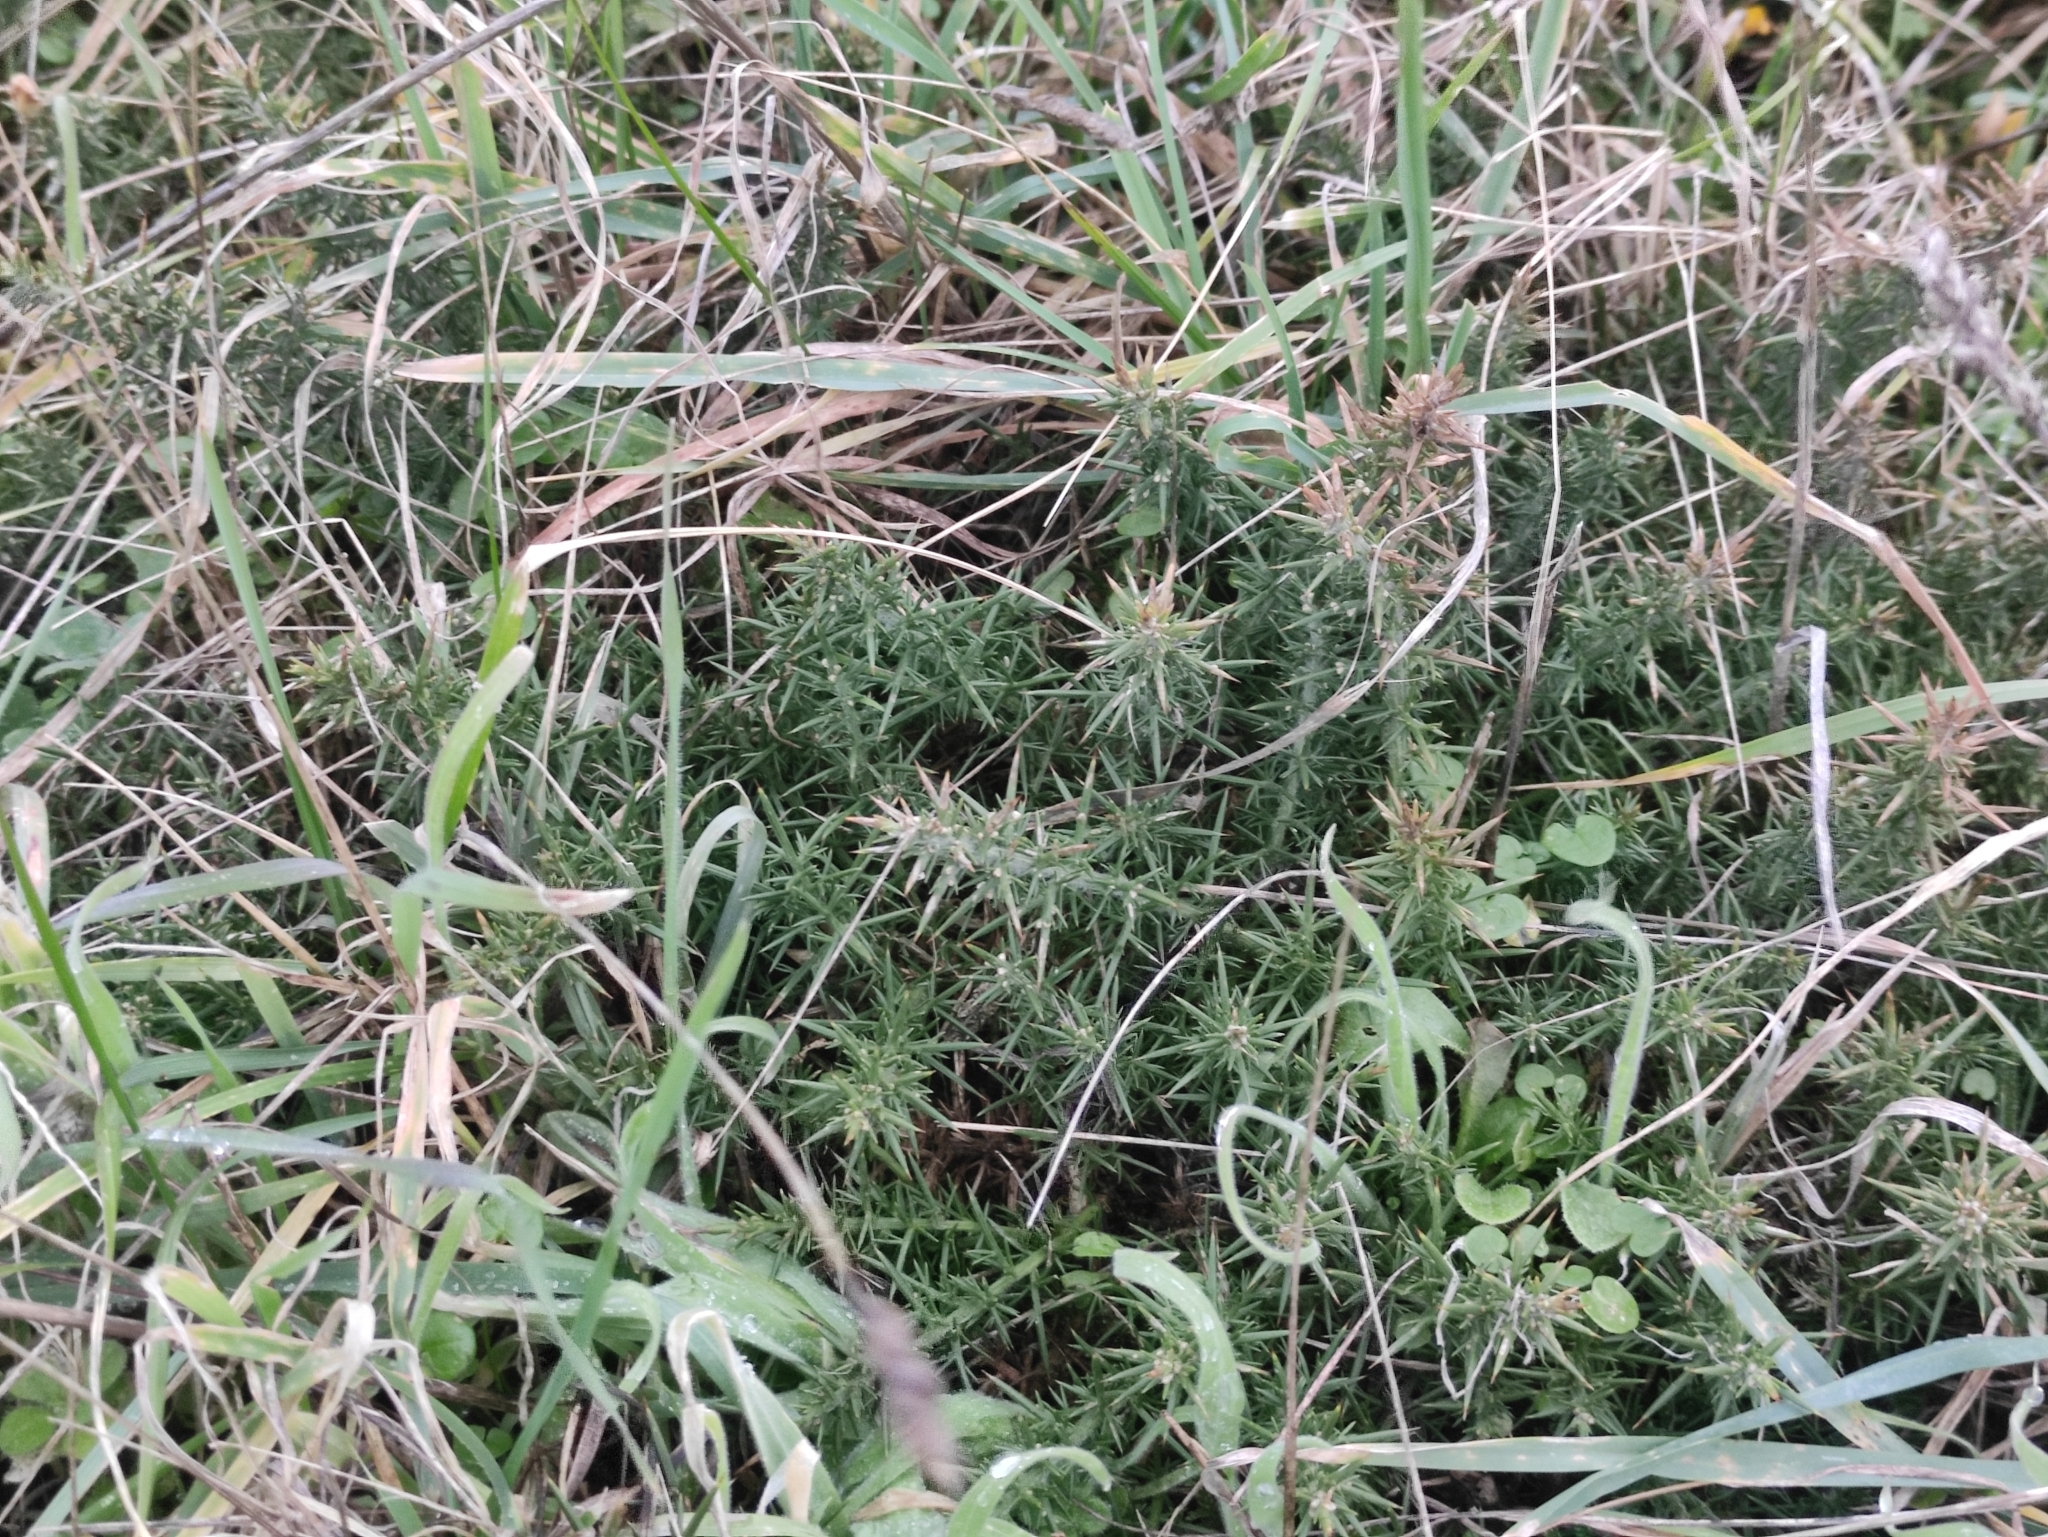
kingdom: Plantae
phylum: Tracheophyta
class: Magnoliopsida
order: Fabales
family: Fabaceae
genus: Ulex
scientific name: Ulex europaeus
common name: Common gorse
